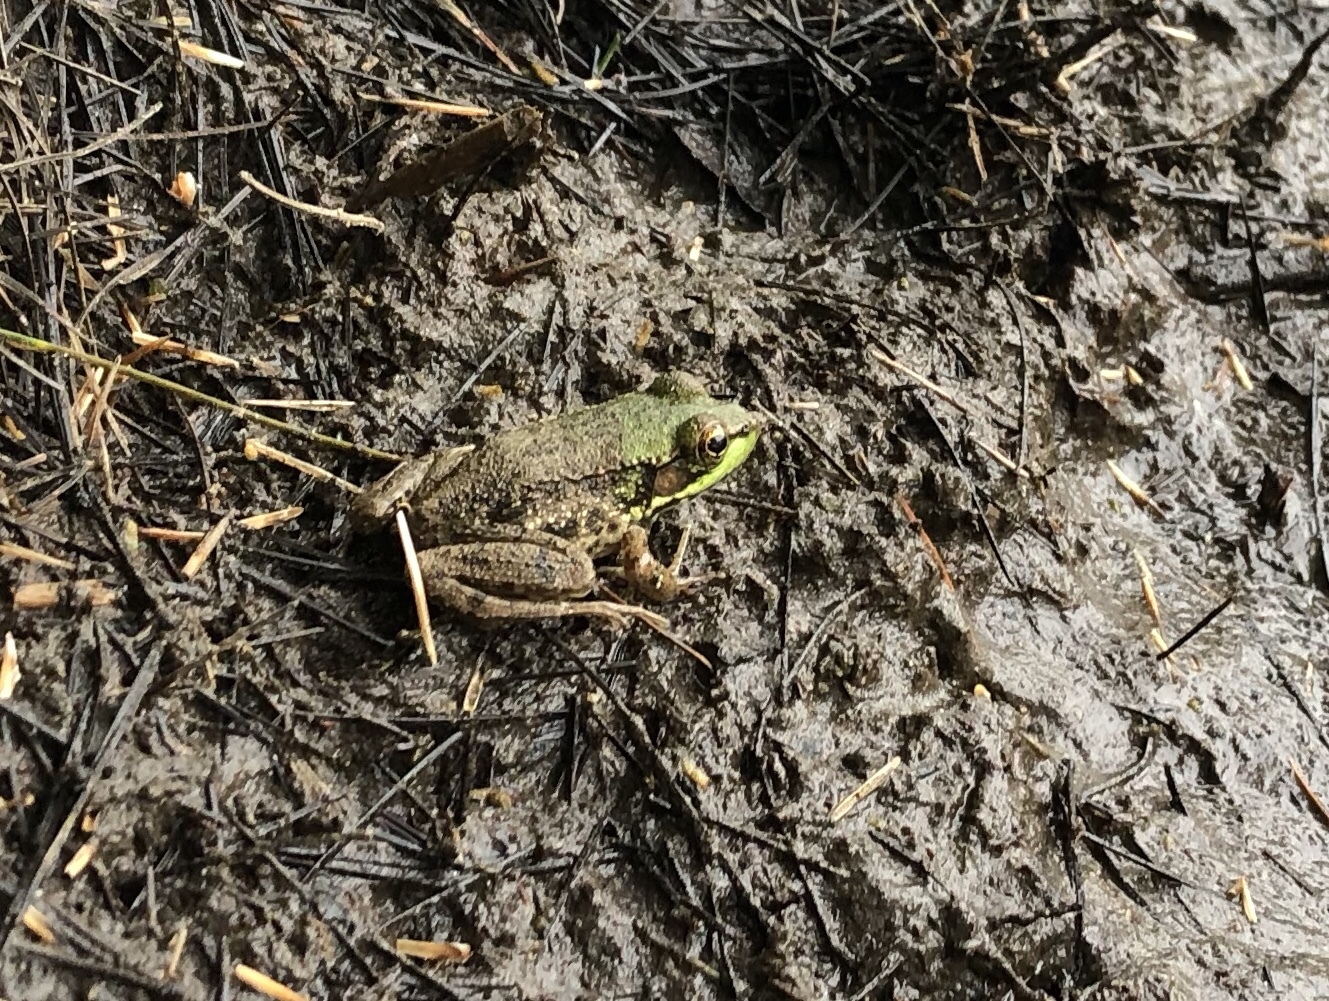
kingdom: Animalia
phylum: Chordata
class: Amphibia
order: Anura
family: Ranidae
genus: Lithobates
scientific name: Lithobates clamitans
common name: Green frog
